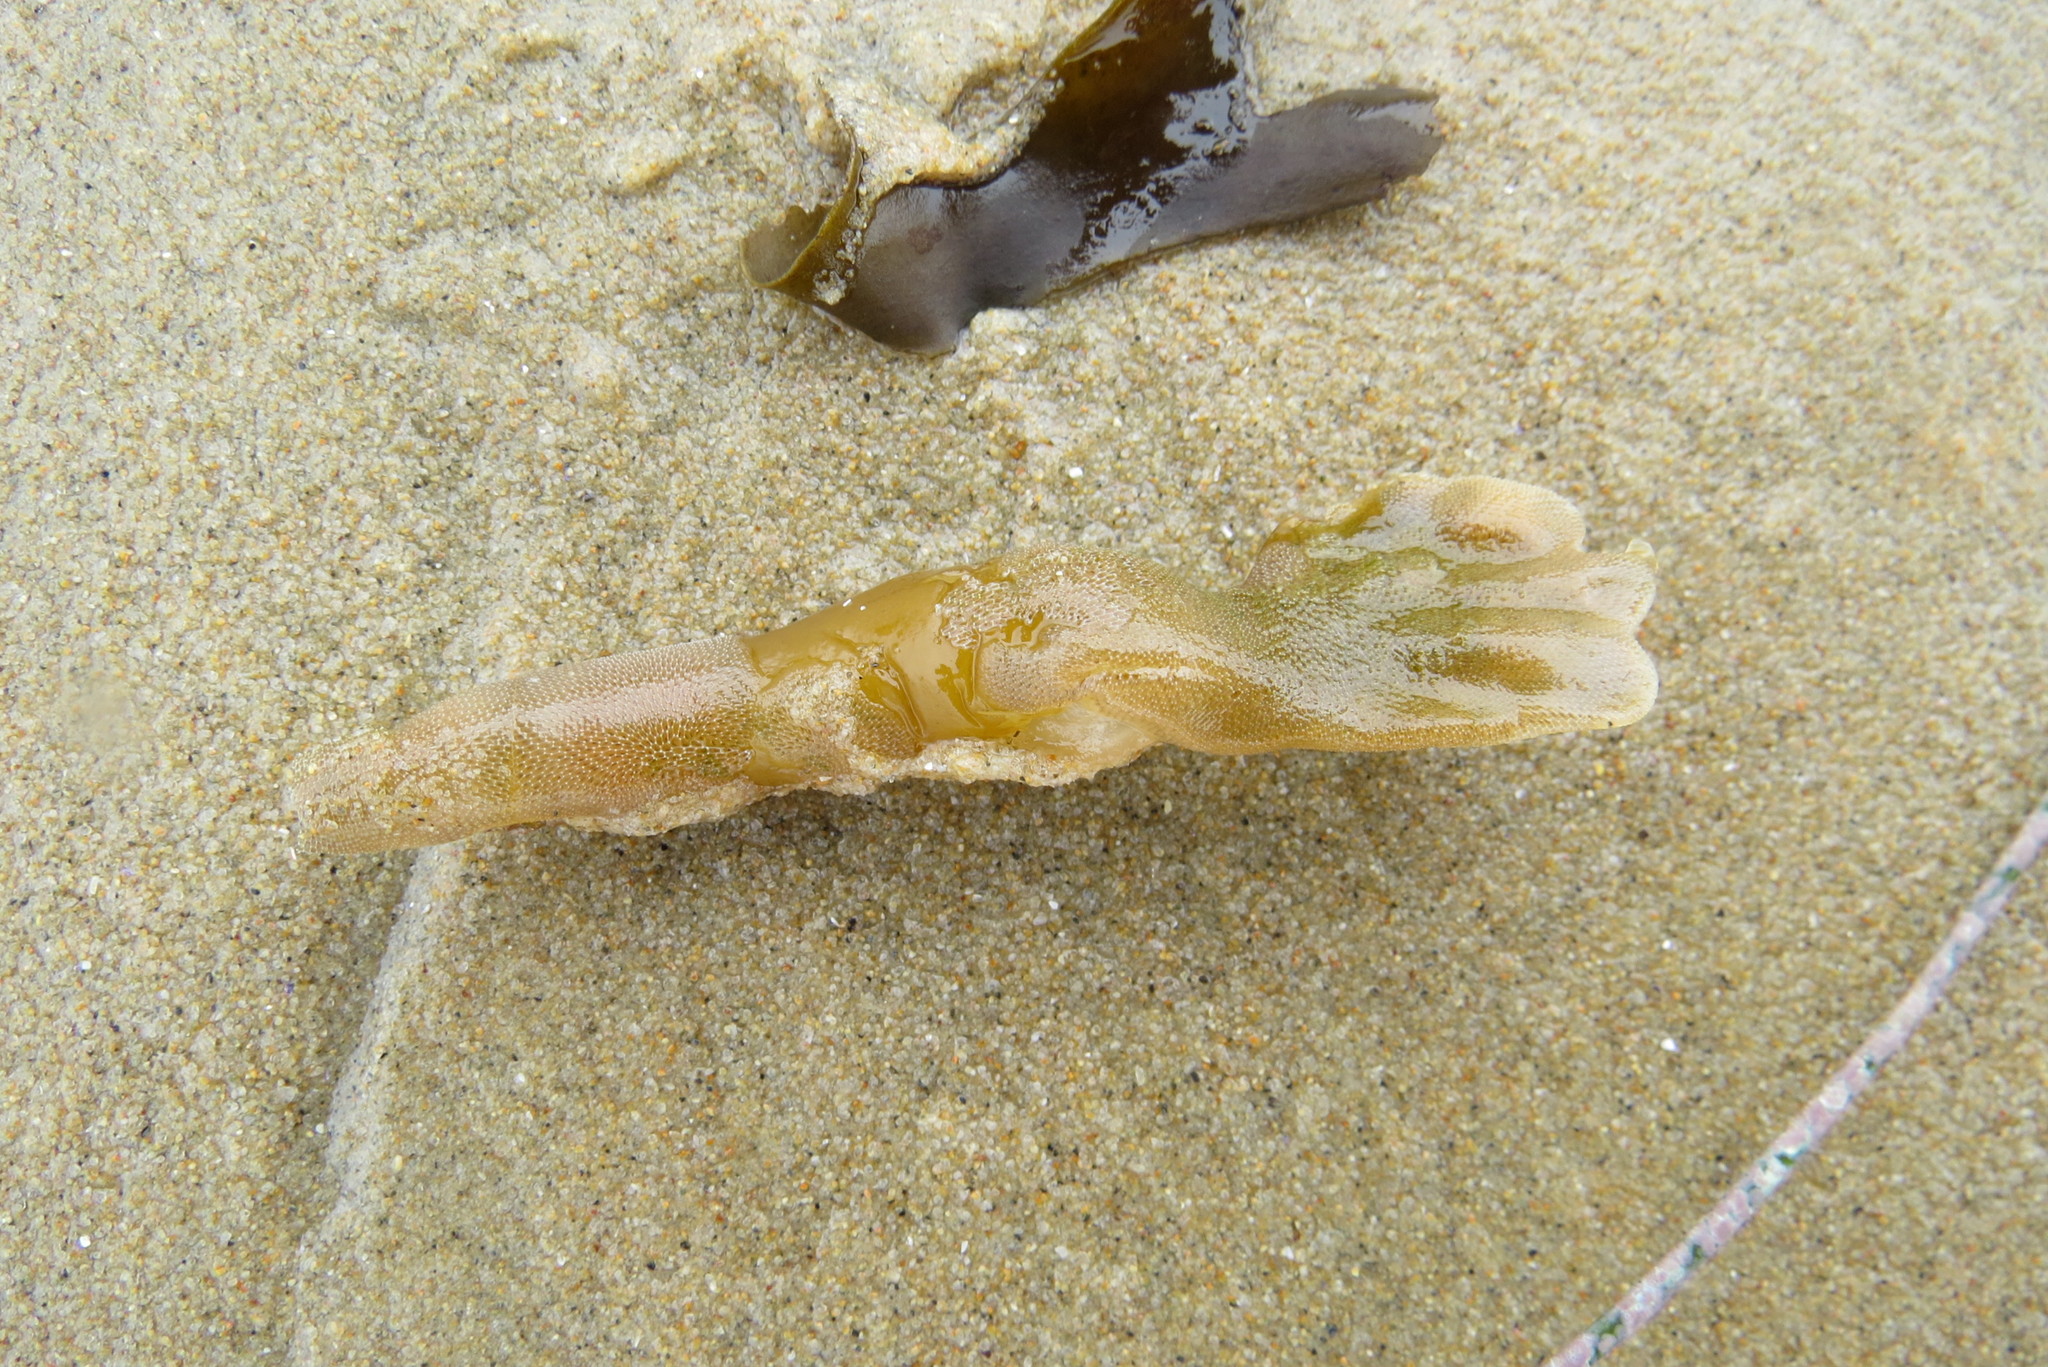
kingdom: Chromista
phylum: Ochrophyta
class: Phaeophyceae
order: Laminariales
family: Laminariaceae
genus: Macrocystis
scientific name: Macrocystis pyrifera
